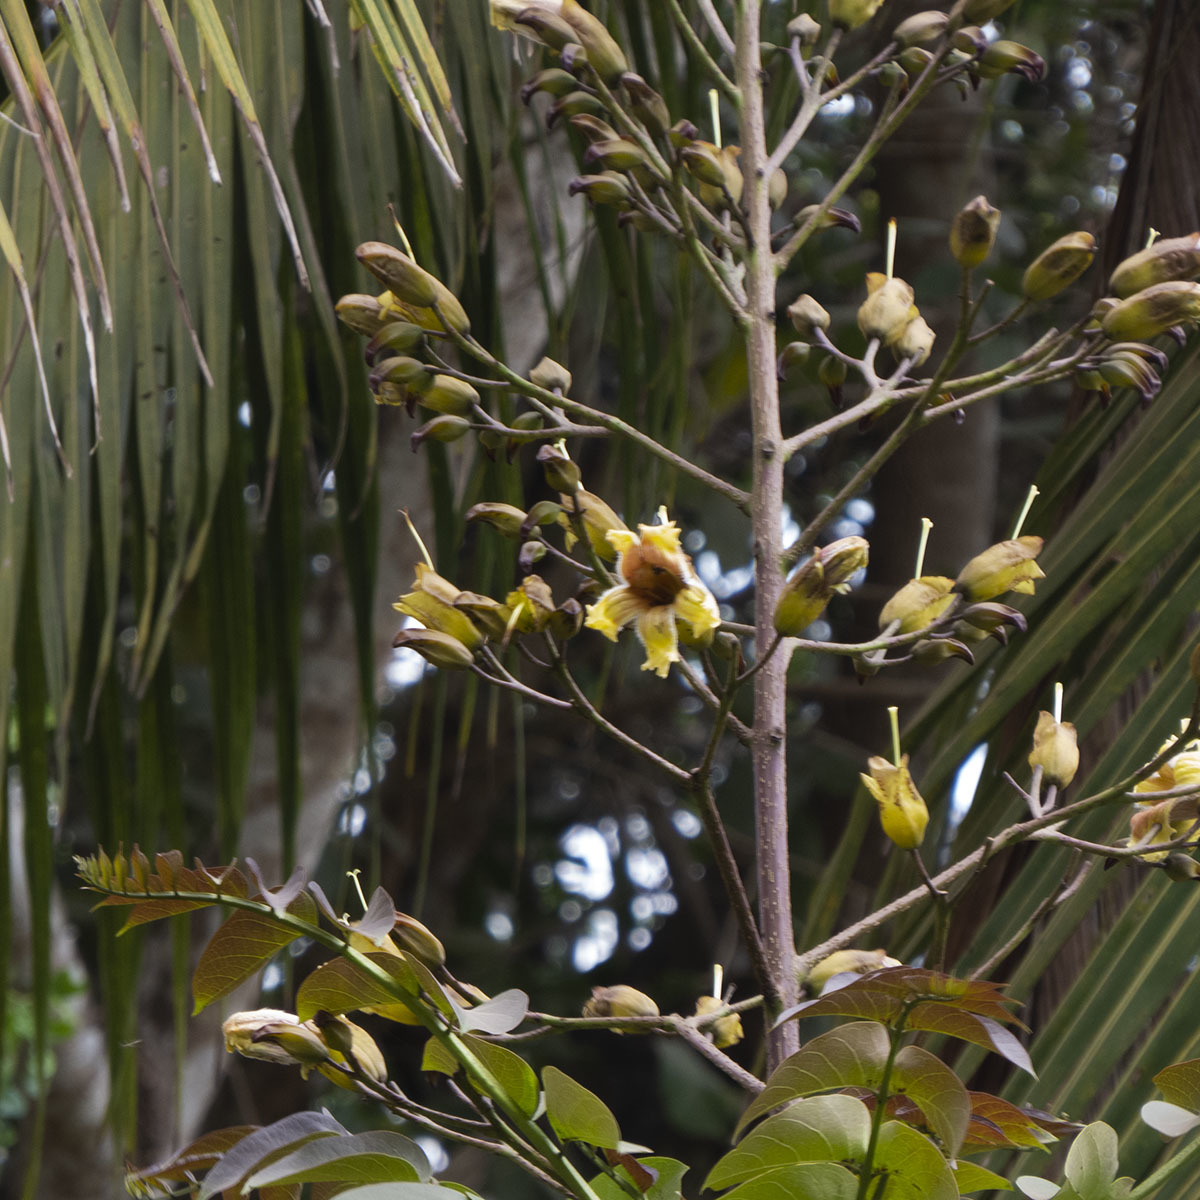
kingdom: Plantae
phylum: Tracheophyta
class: Magnoliopsida
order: Lamiales
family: Bignoniaceae
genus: Pajanelia
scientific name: Pajanelia longifolia
